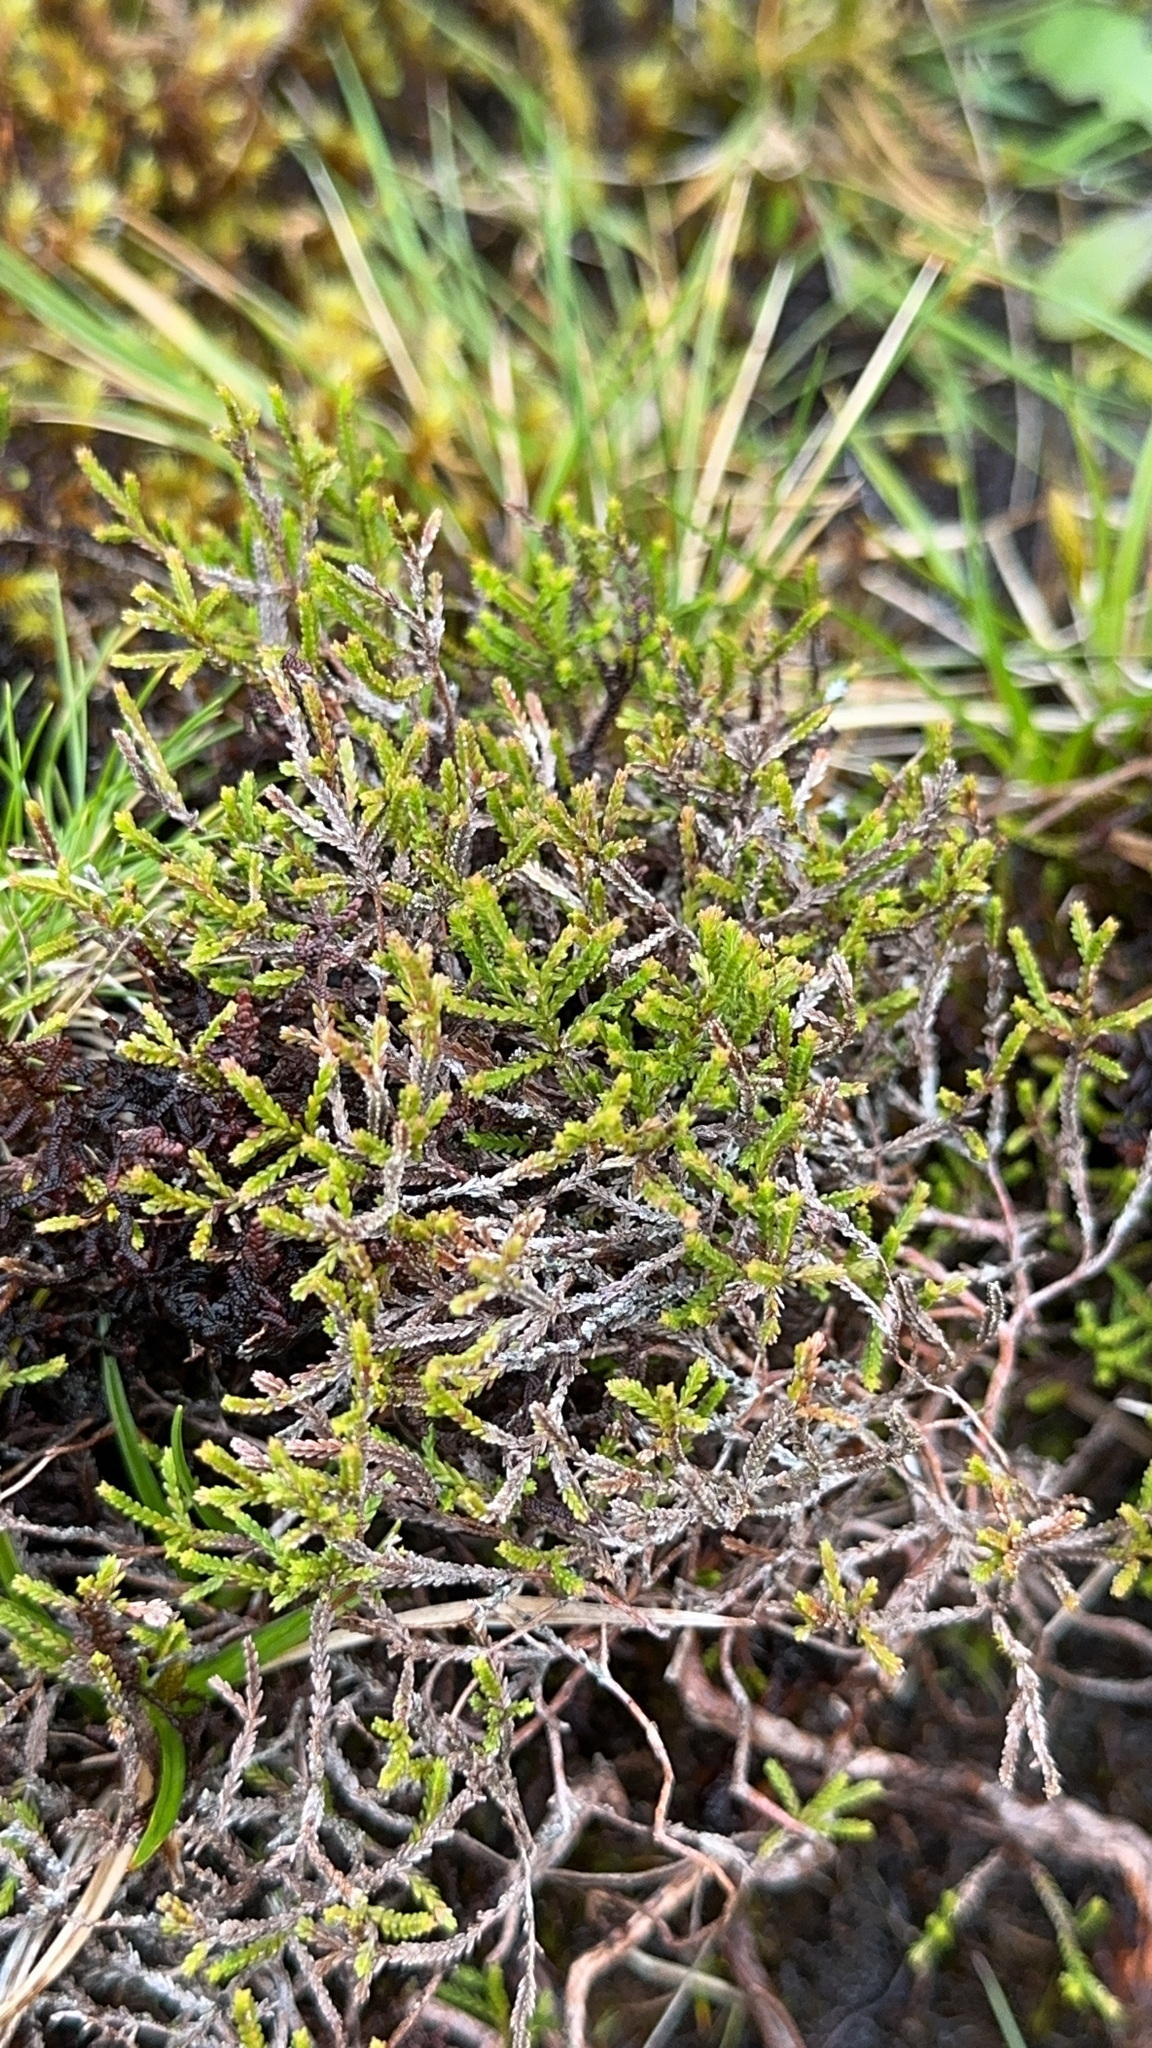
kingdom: Plantae
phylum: Tracheophyta
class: Magnoliopsida
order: Ericales
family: Ericaceae
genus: Calluna
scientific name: Calluna vulgaris
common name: Heather
